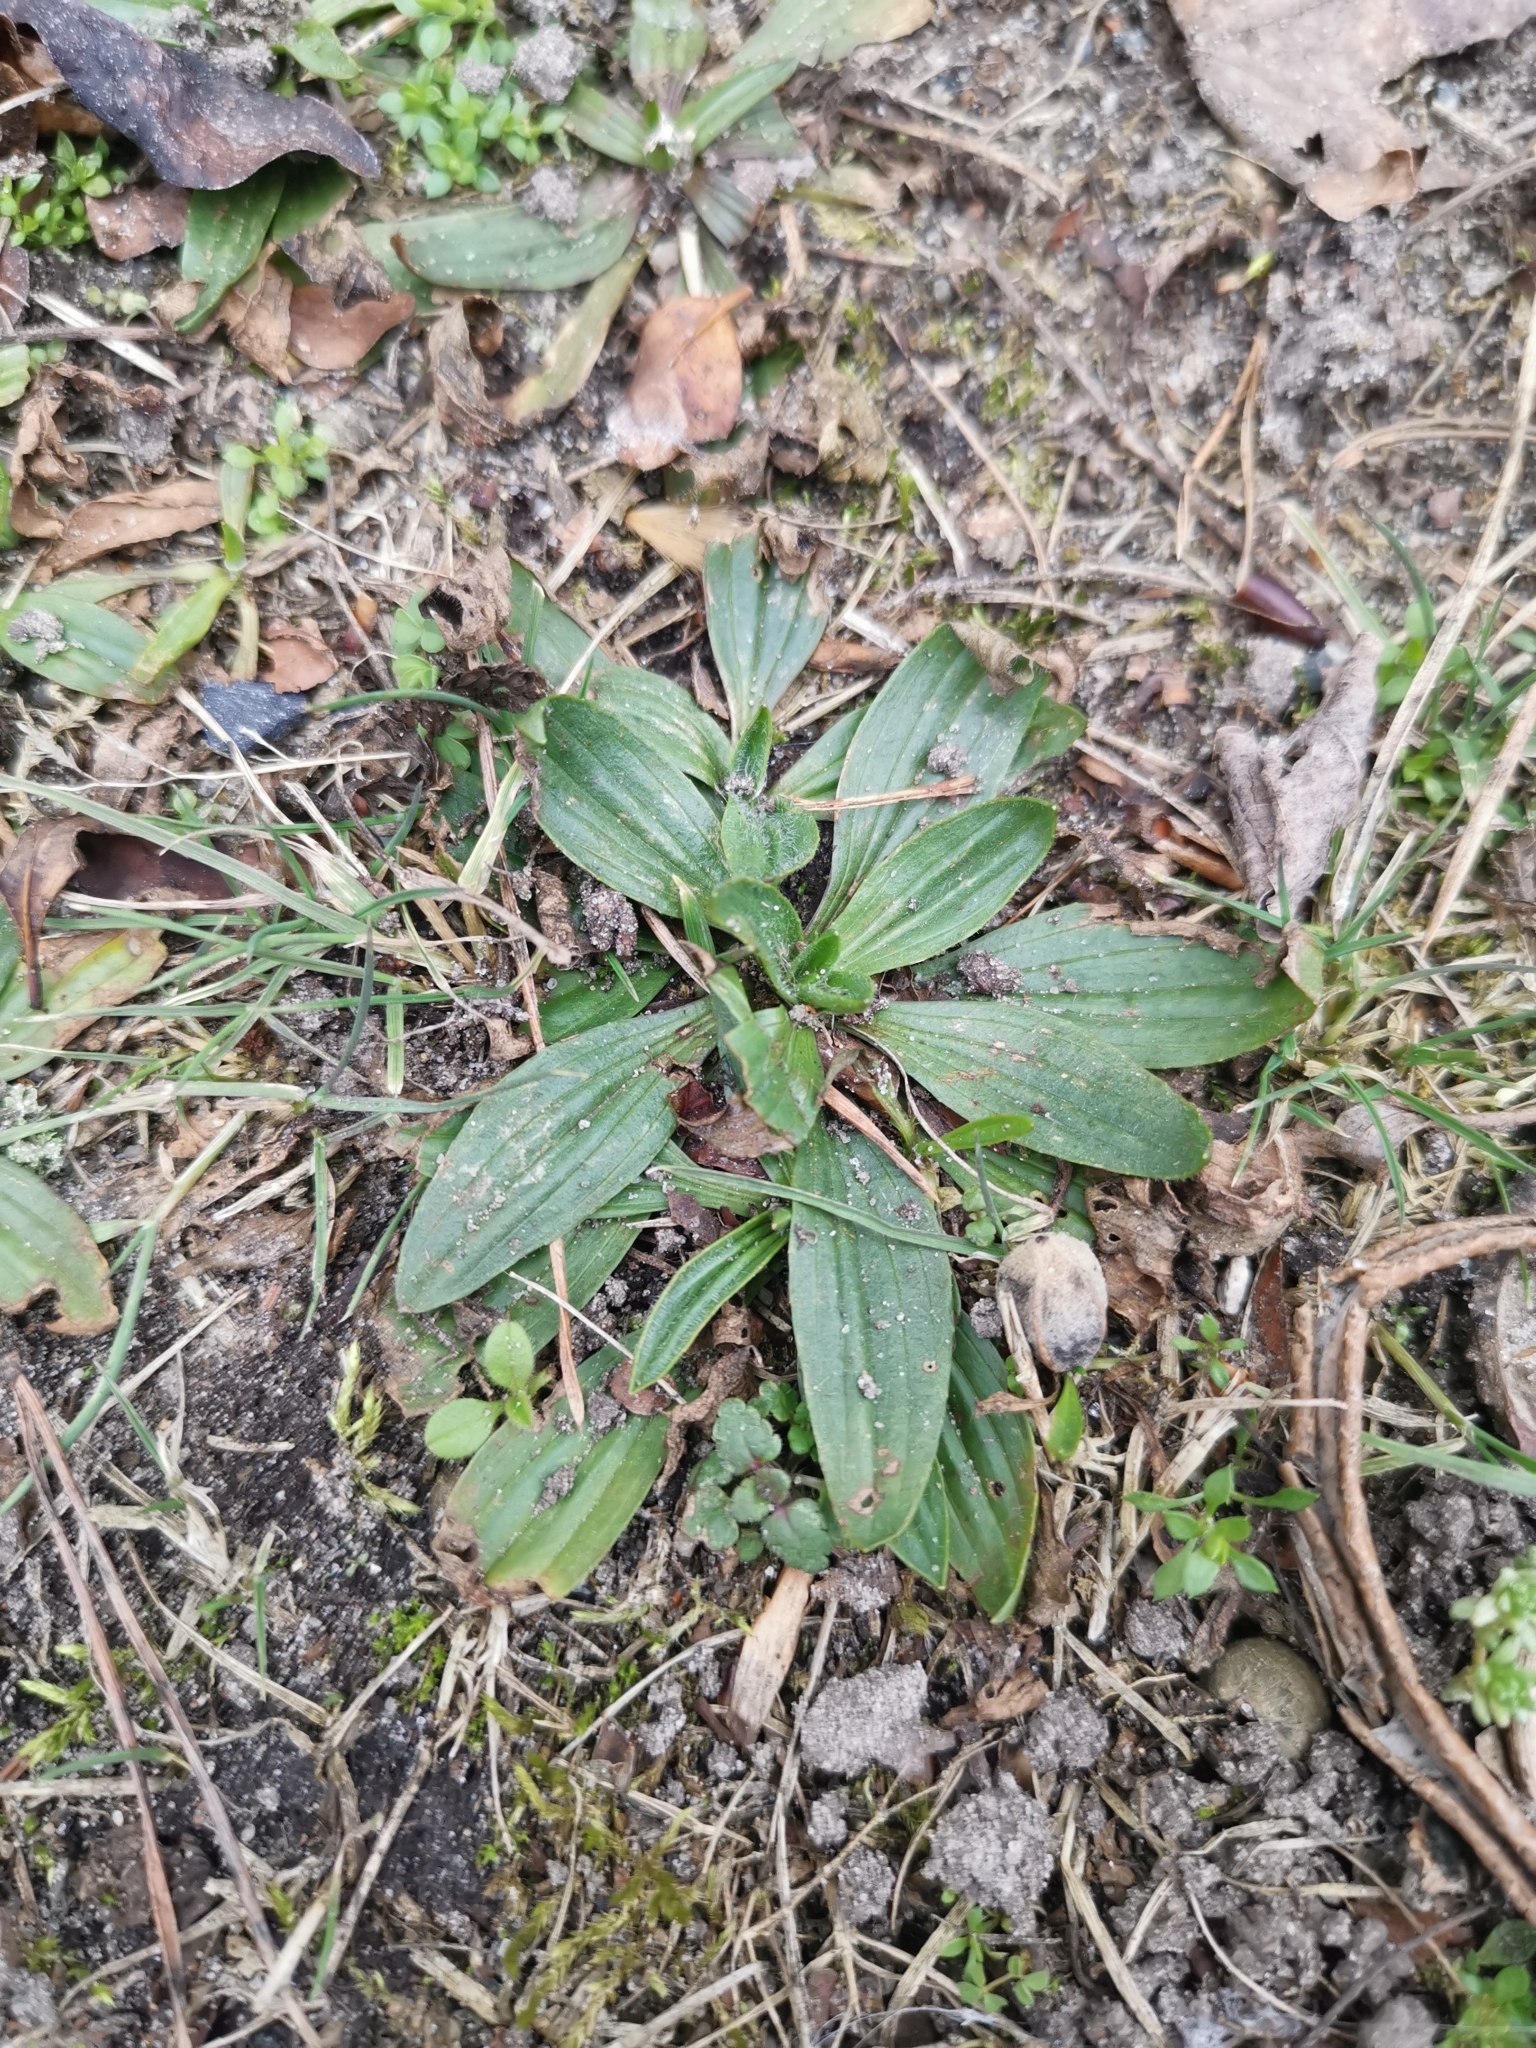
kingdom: Plantae
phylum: Tracheophyta
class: Magnoliopsida
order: Lamiales
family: Plantaginaceae
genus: Plantago
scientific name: Plantago lanceolata
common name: Ribwort plantain
